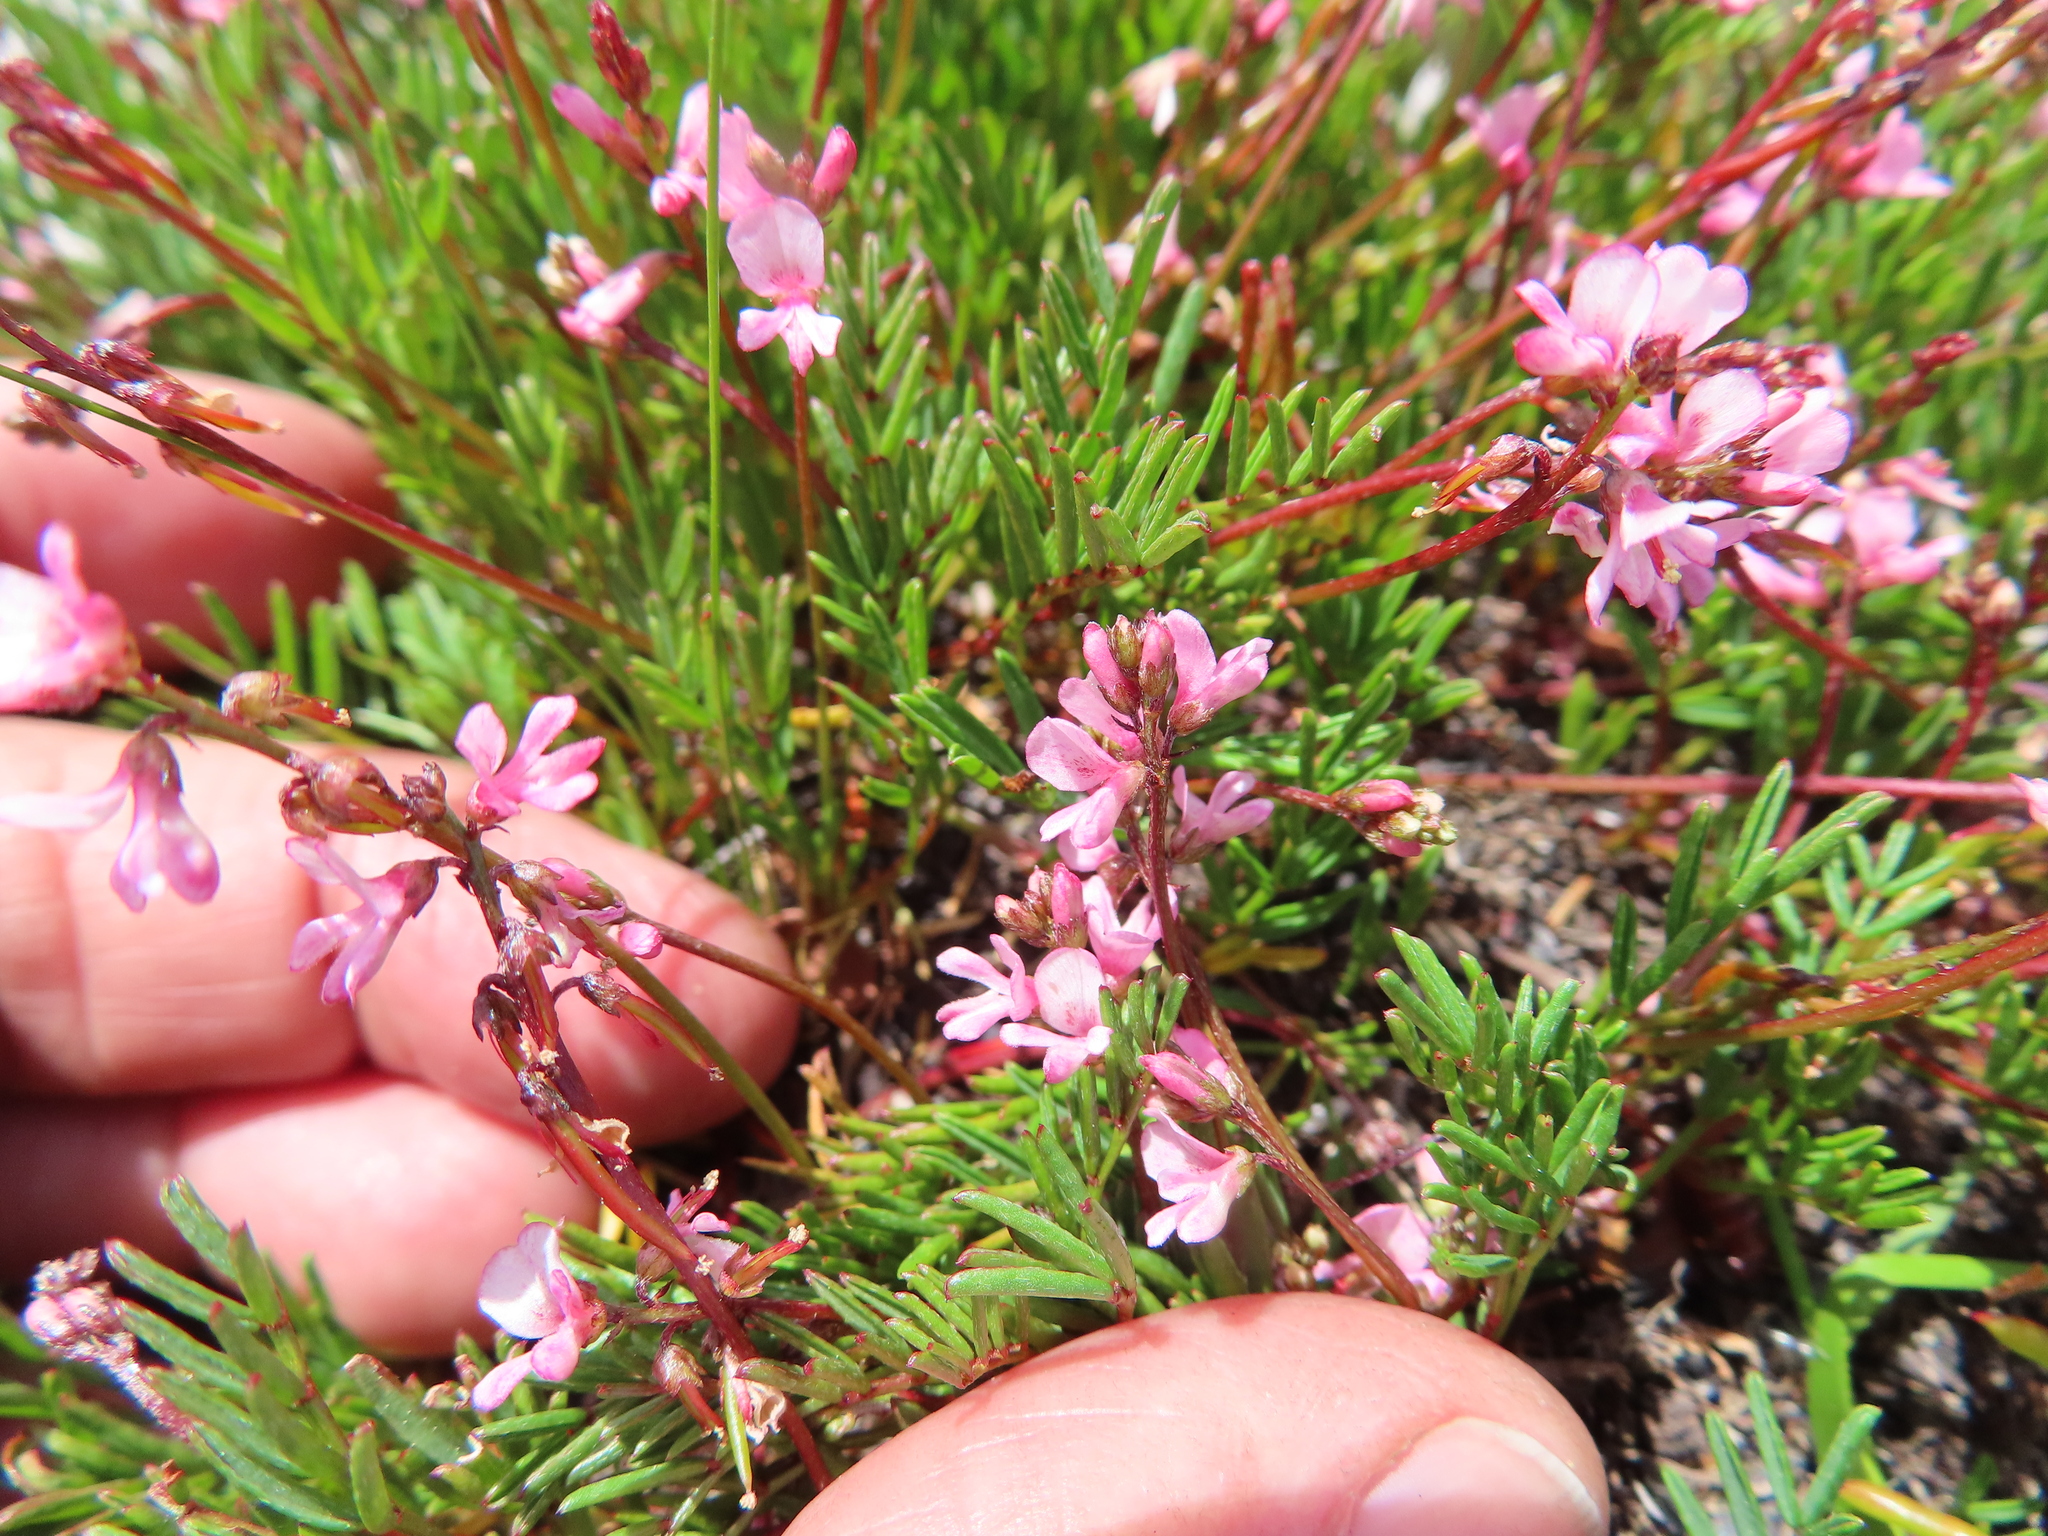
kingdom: Plantae
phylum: Tracheophyta
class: Magnoliopsida
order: Fabales
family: Fabaceae
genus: Indigofera
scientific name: Indigofera
